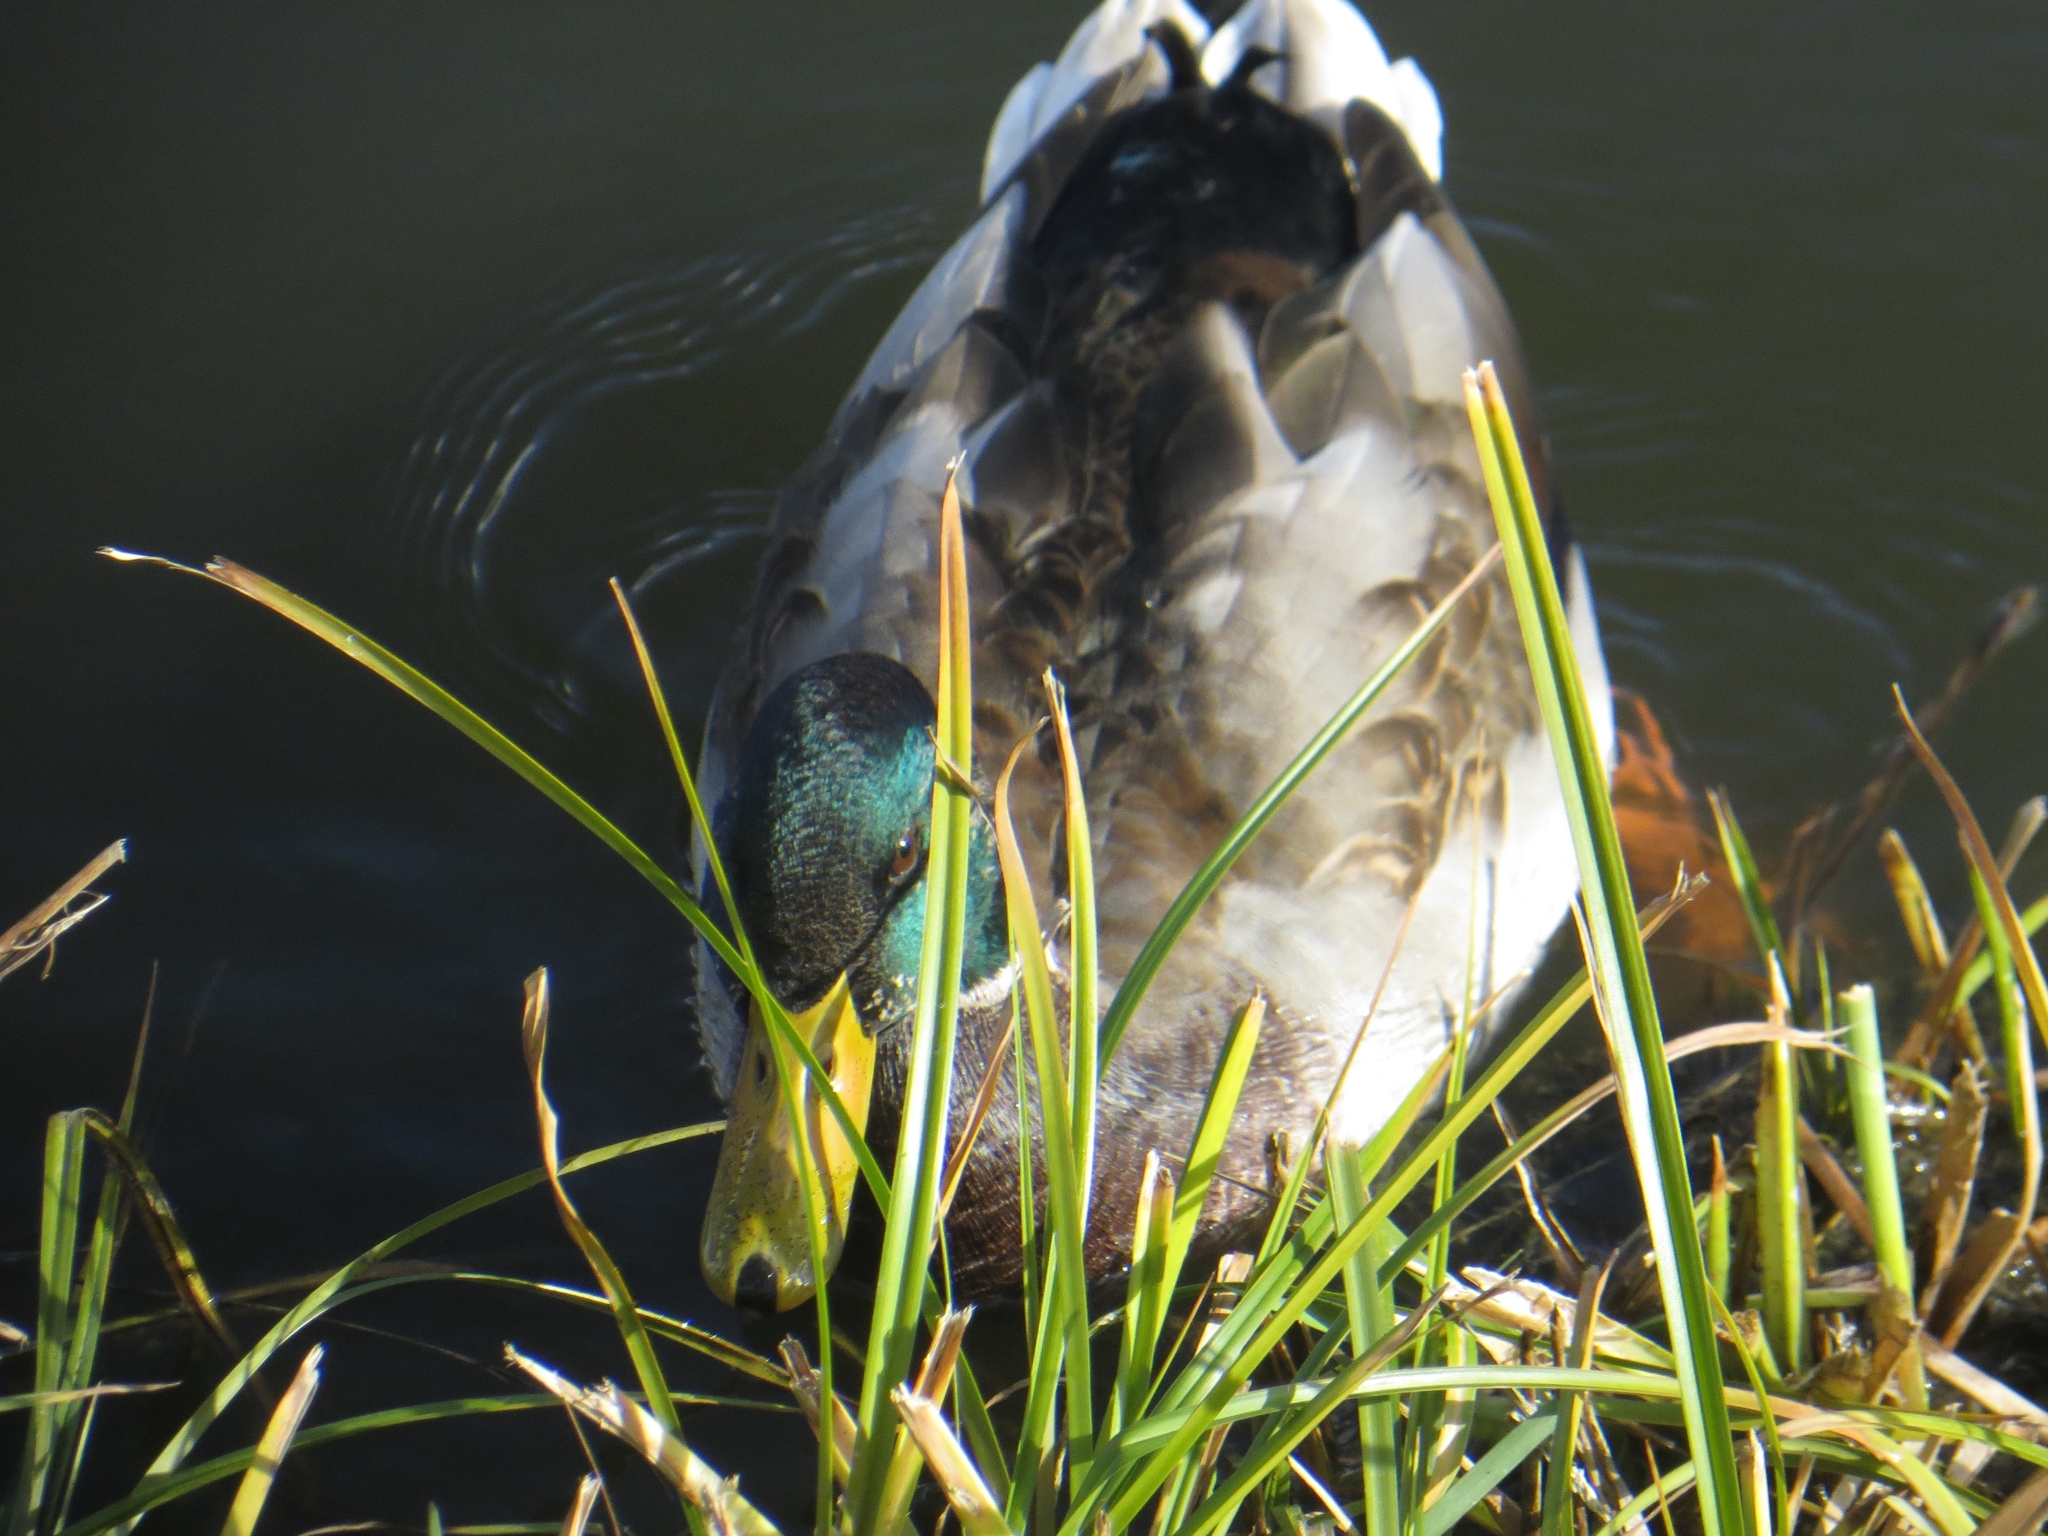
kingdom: Animalia
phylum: Chordata
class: Aves
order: Anseriformes
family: Anatidae
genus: Anas
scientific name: Anas platyrhynchos
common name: Mallard
